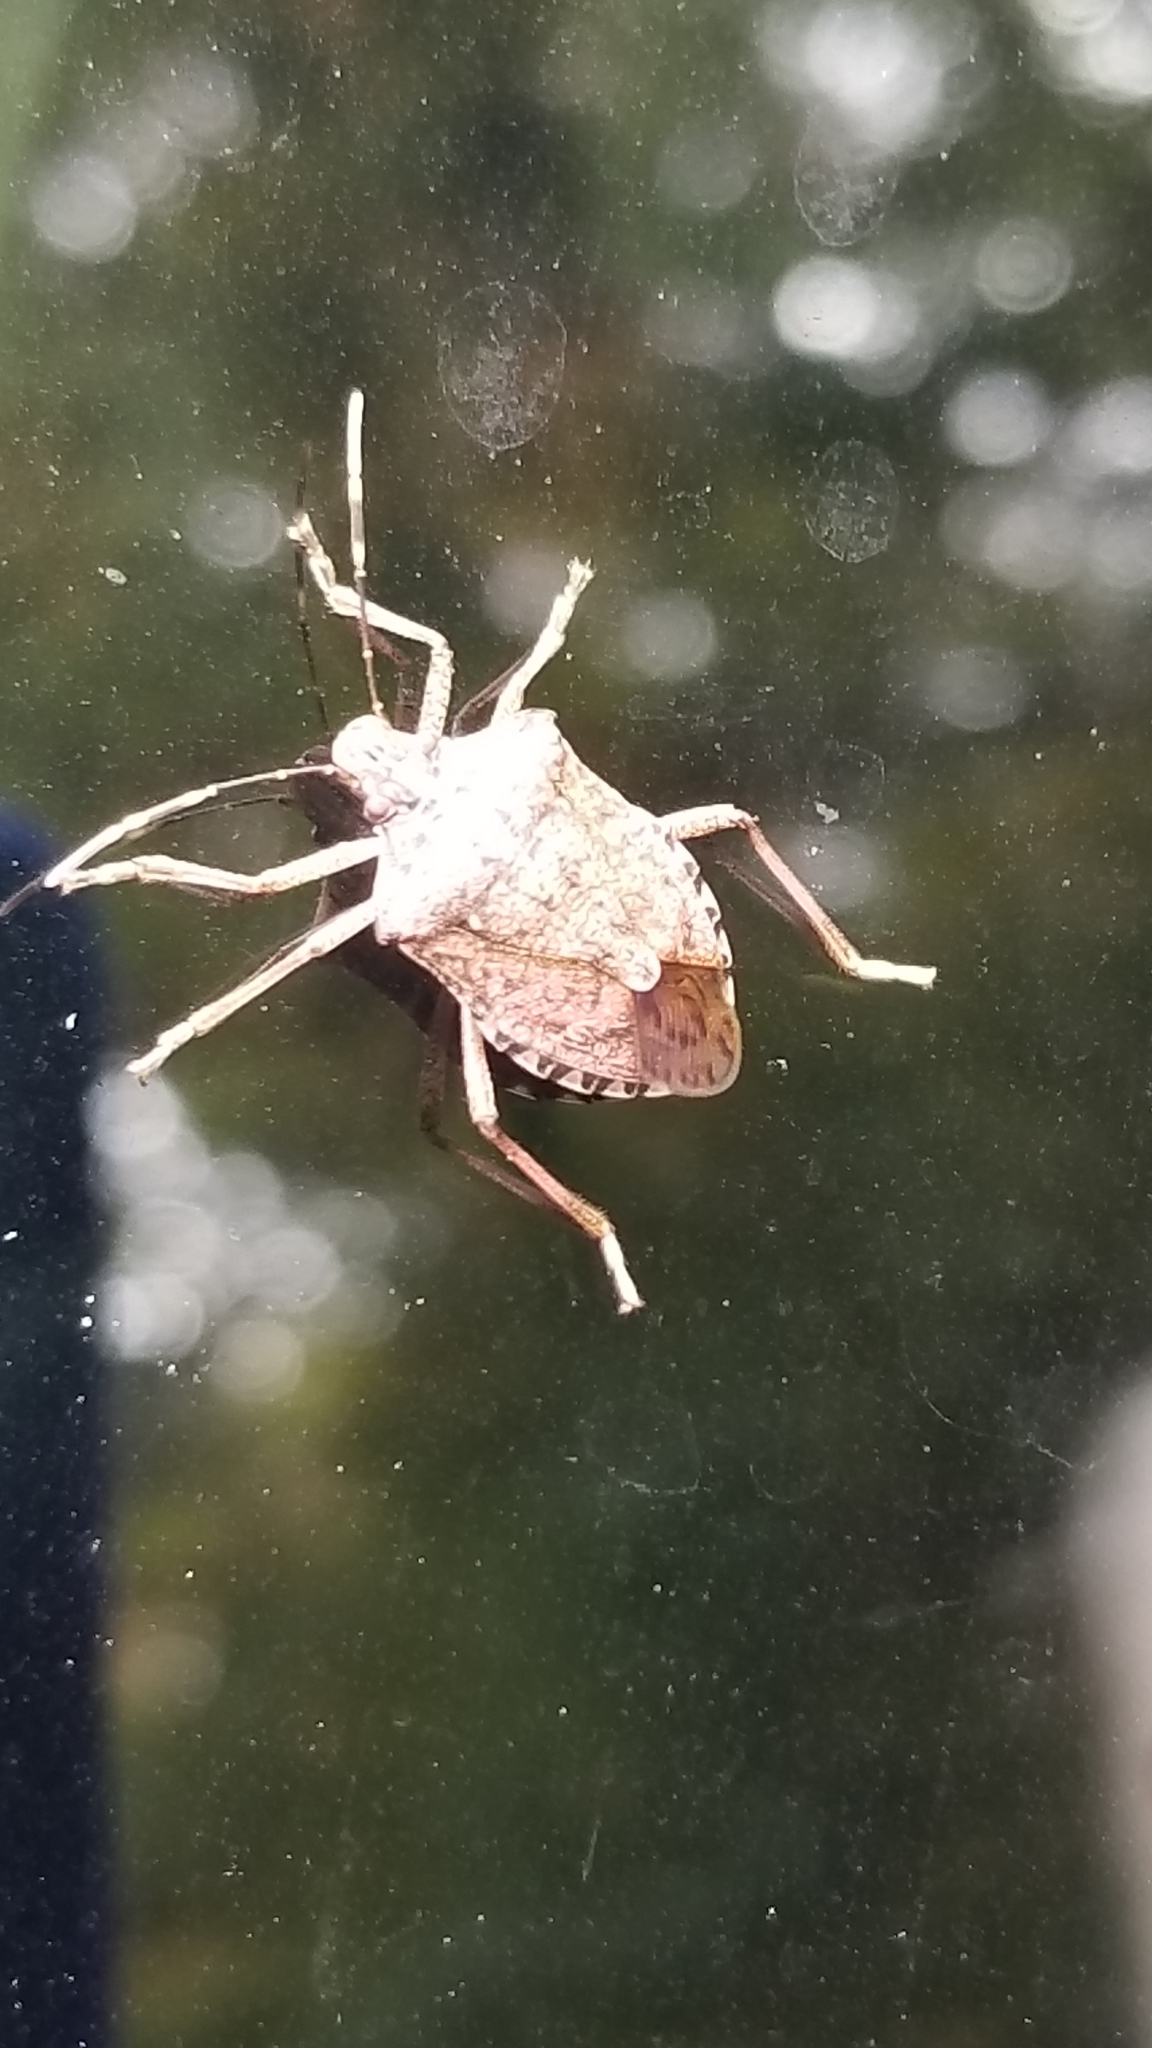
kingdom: Animalia
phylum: Arthropoda
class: Insecta
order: Hemiptera
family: Pentatomidae
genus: Halyomorpha
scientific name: Halyomorpha halys
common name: Brown marmorated stink bug
